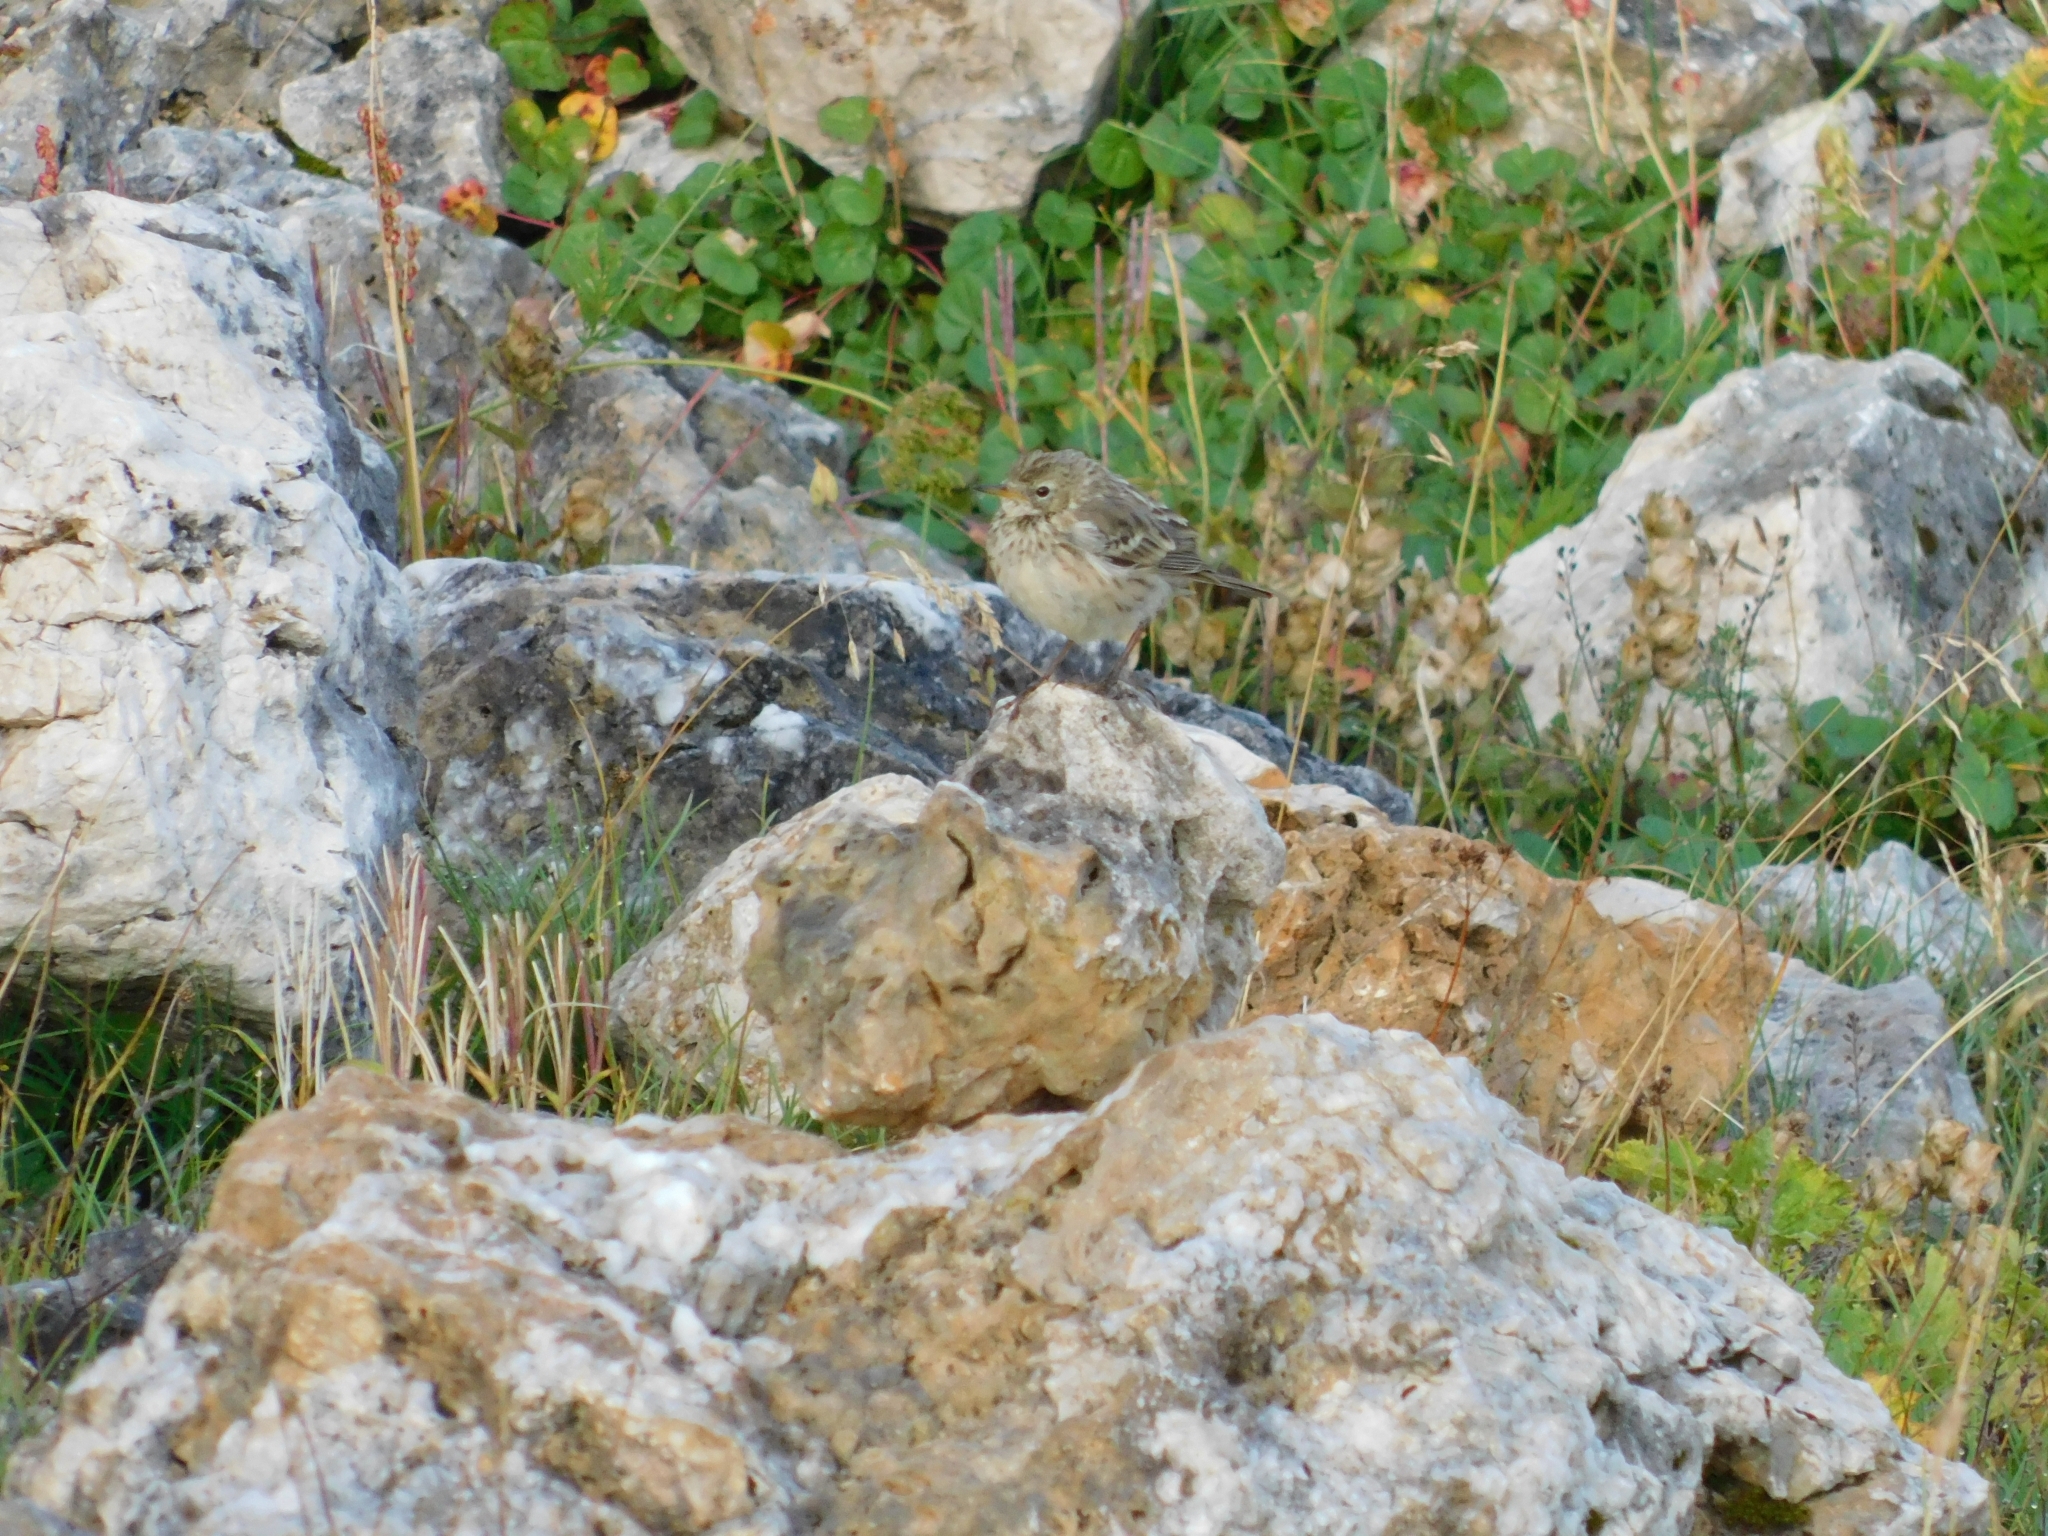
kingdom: Animalia
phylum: Chordata
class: Aves
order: Passeriformes
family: Motacillidae
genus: Anthus
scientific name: Anthus spinoletta
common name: Water pipit
